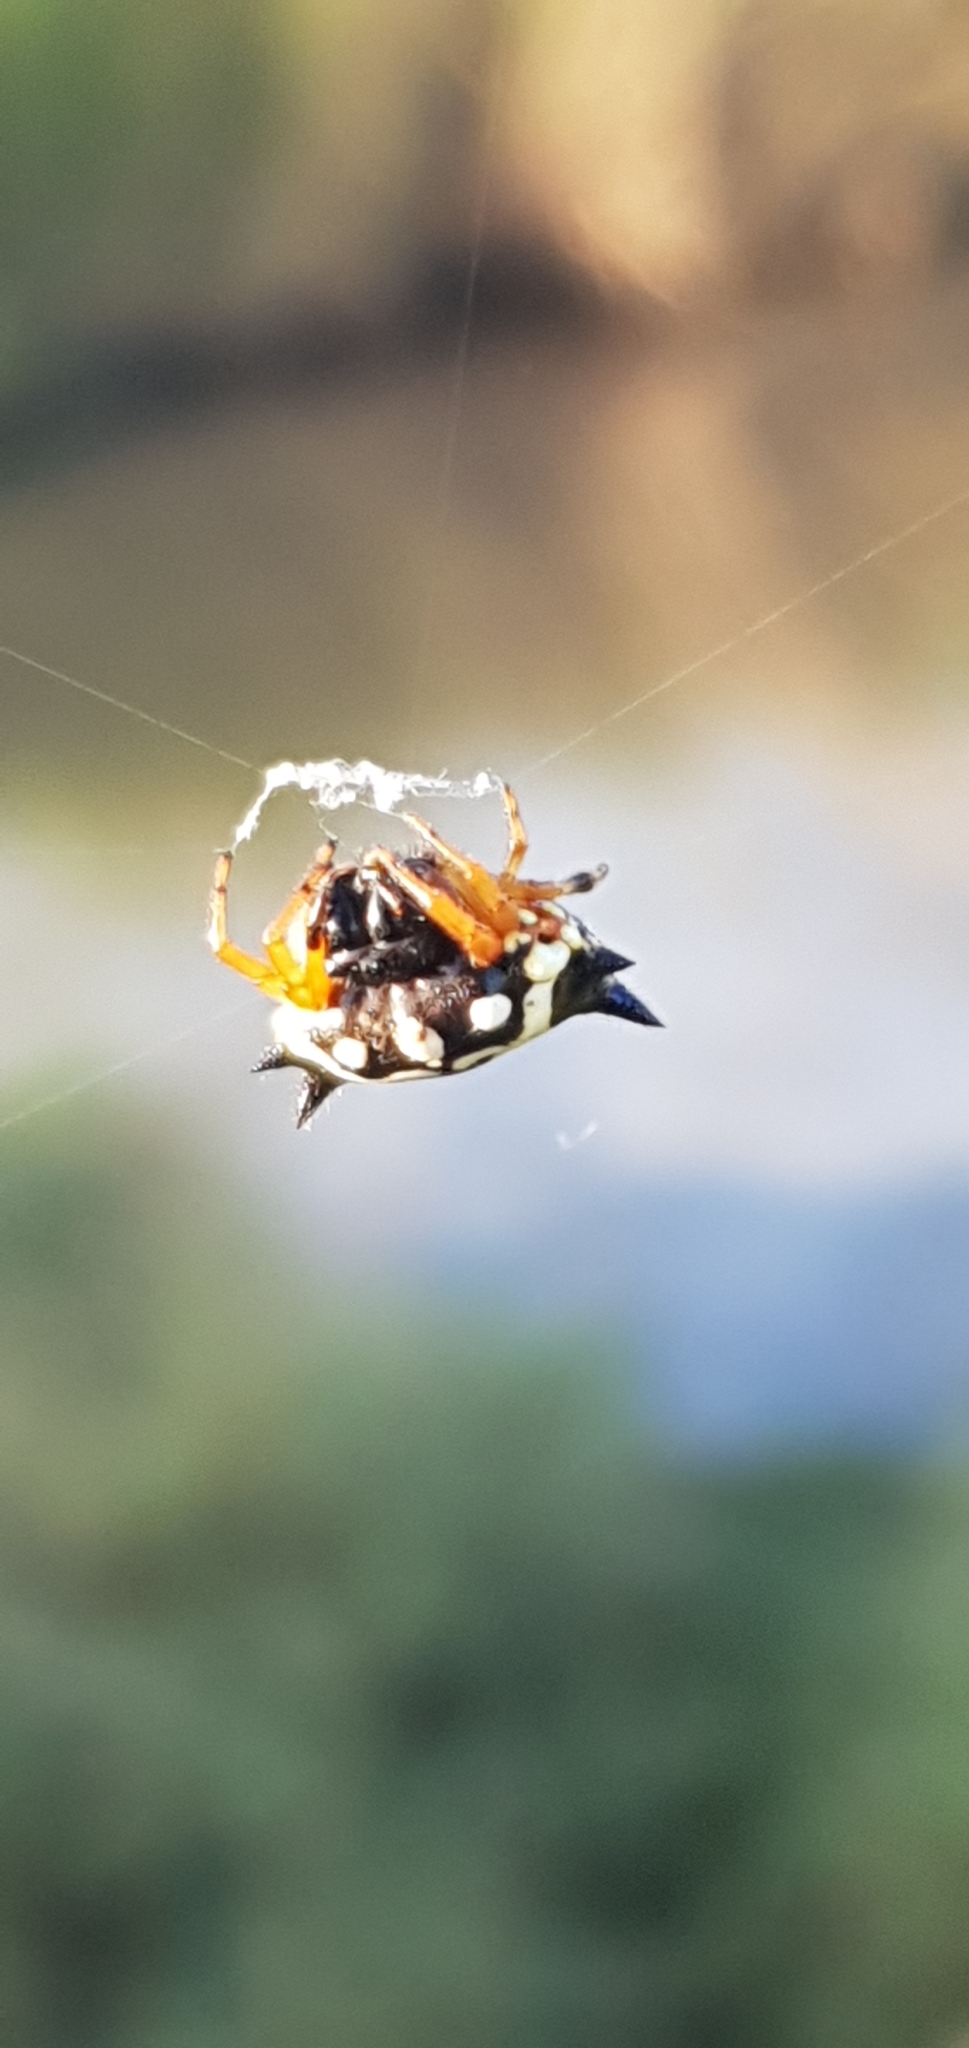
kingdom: Animalia
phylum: Arthropoda
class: Arachnida
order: Araneae
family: Araneidae
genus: Austracantha
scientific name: Austracantha minax
